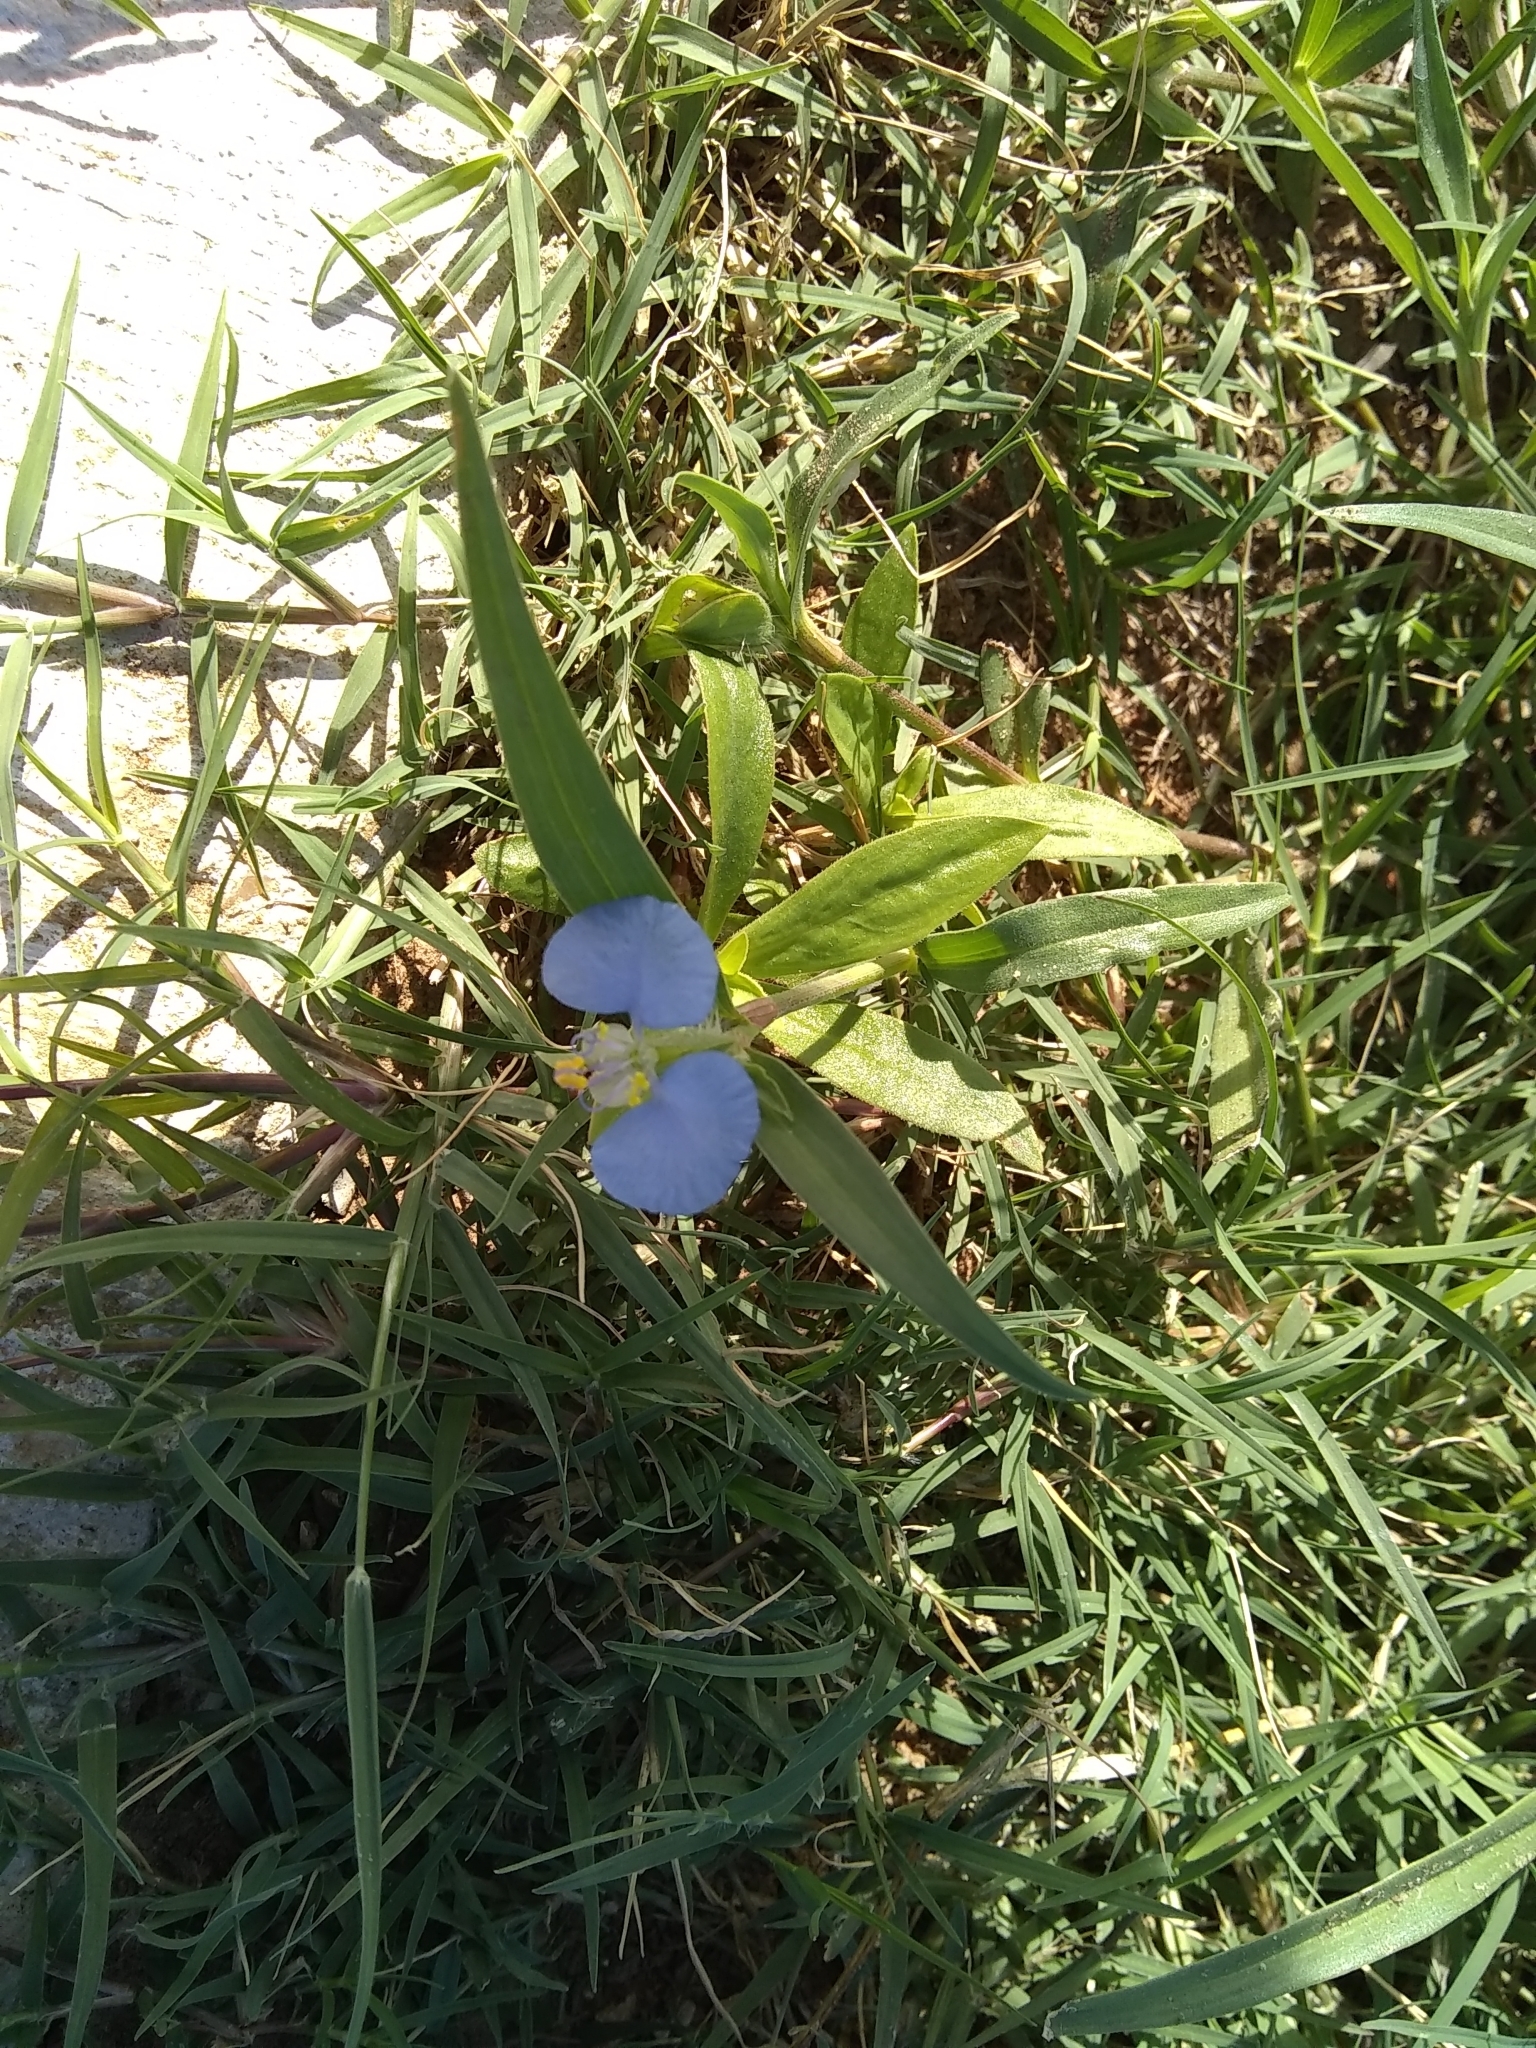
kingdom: Plantae
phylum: Tracheophyta
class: Liliopsida
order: Commelinales
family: Commelinaceae
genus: Commelina
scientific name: Commelina erecta
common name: Blousel blommetjie
